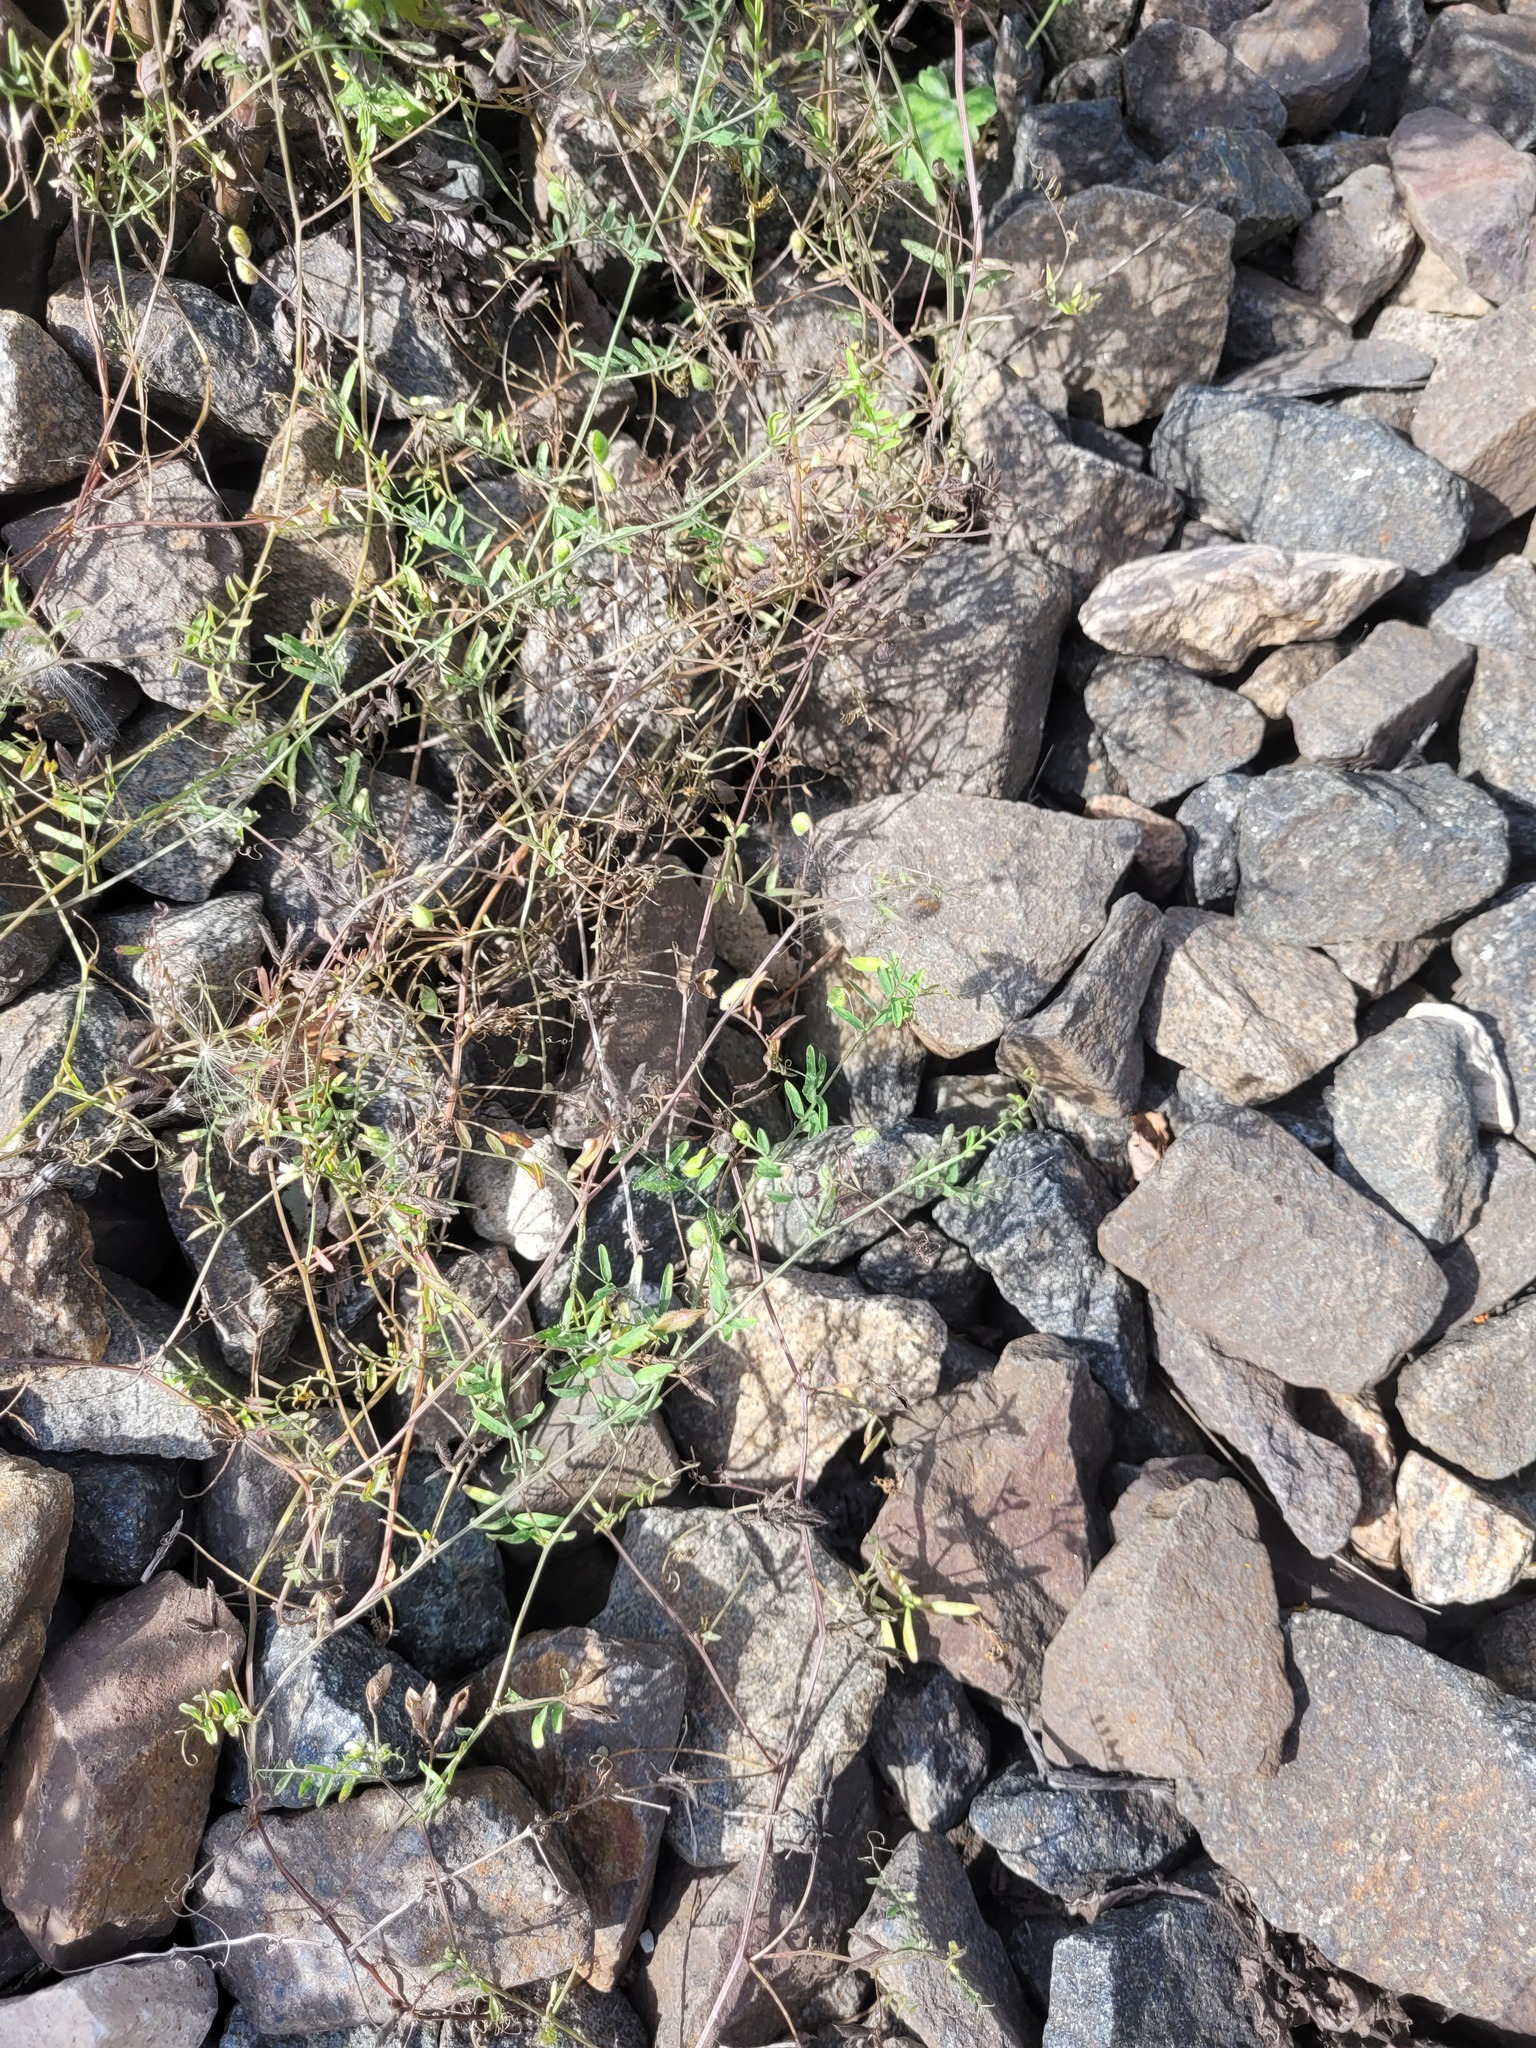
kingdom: Plantae
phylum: Tracheophyta
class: Magnoliopsida
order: Fabales
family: Fabaceae
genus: Vicia
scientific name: Vicia hirsuta
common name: Tiny vetch
